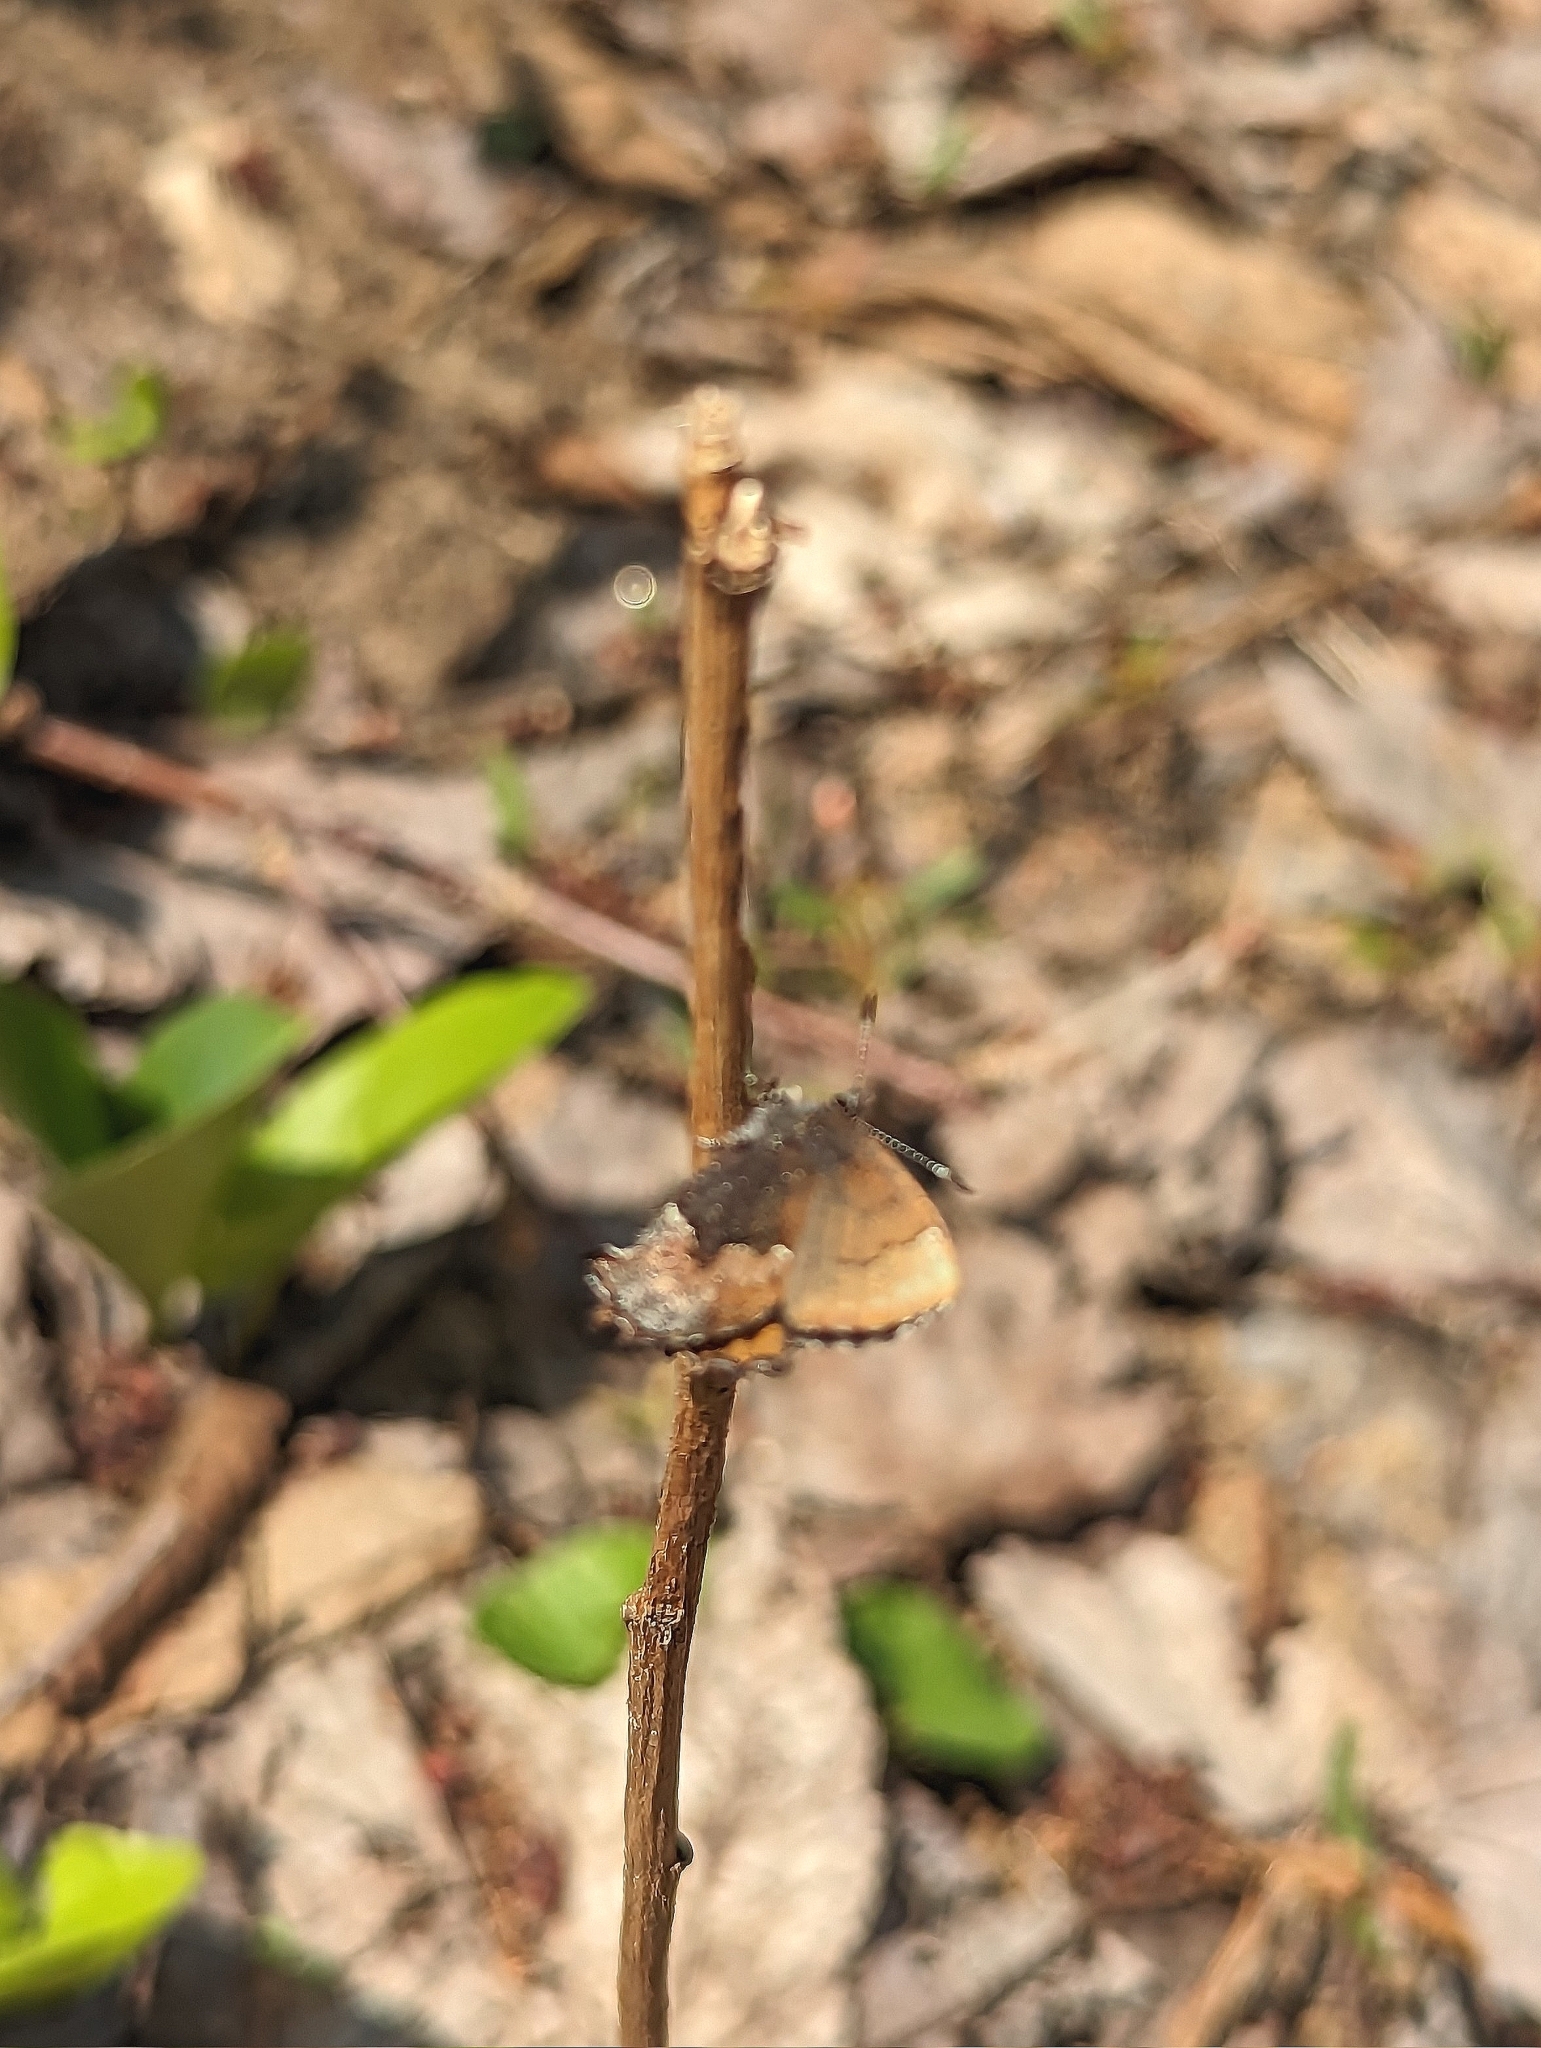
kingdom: Animalia
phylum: Arthropoda
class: Insecta
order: Lepidoptera
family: Lycaenidae
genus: Incisalia
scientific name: Incisalia henrici
